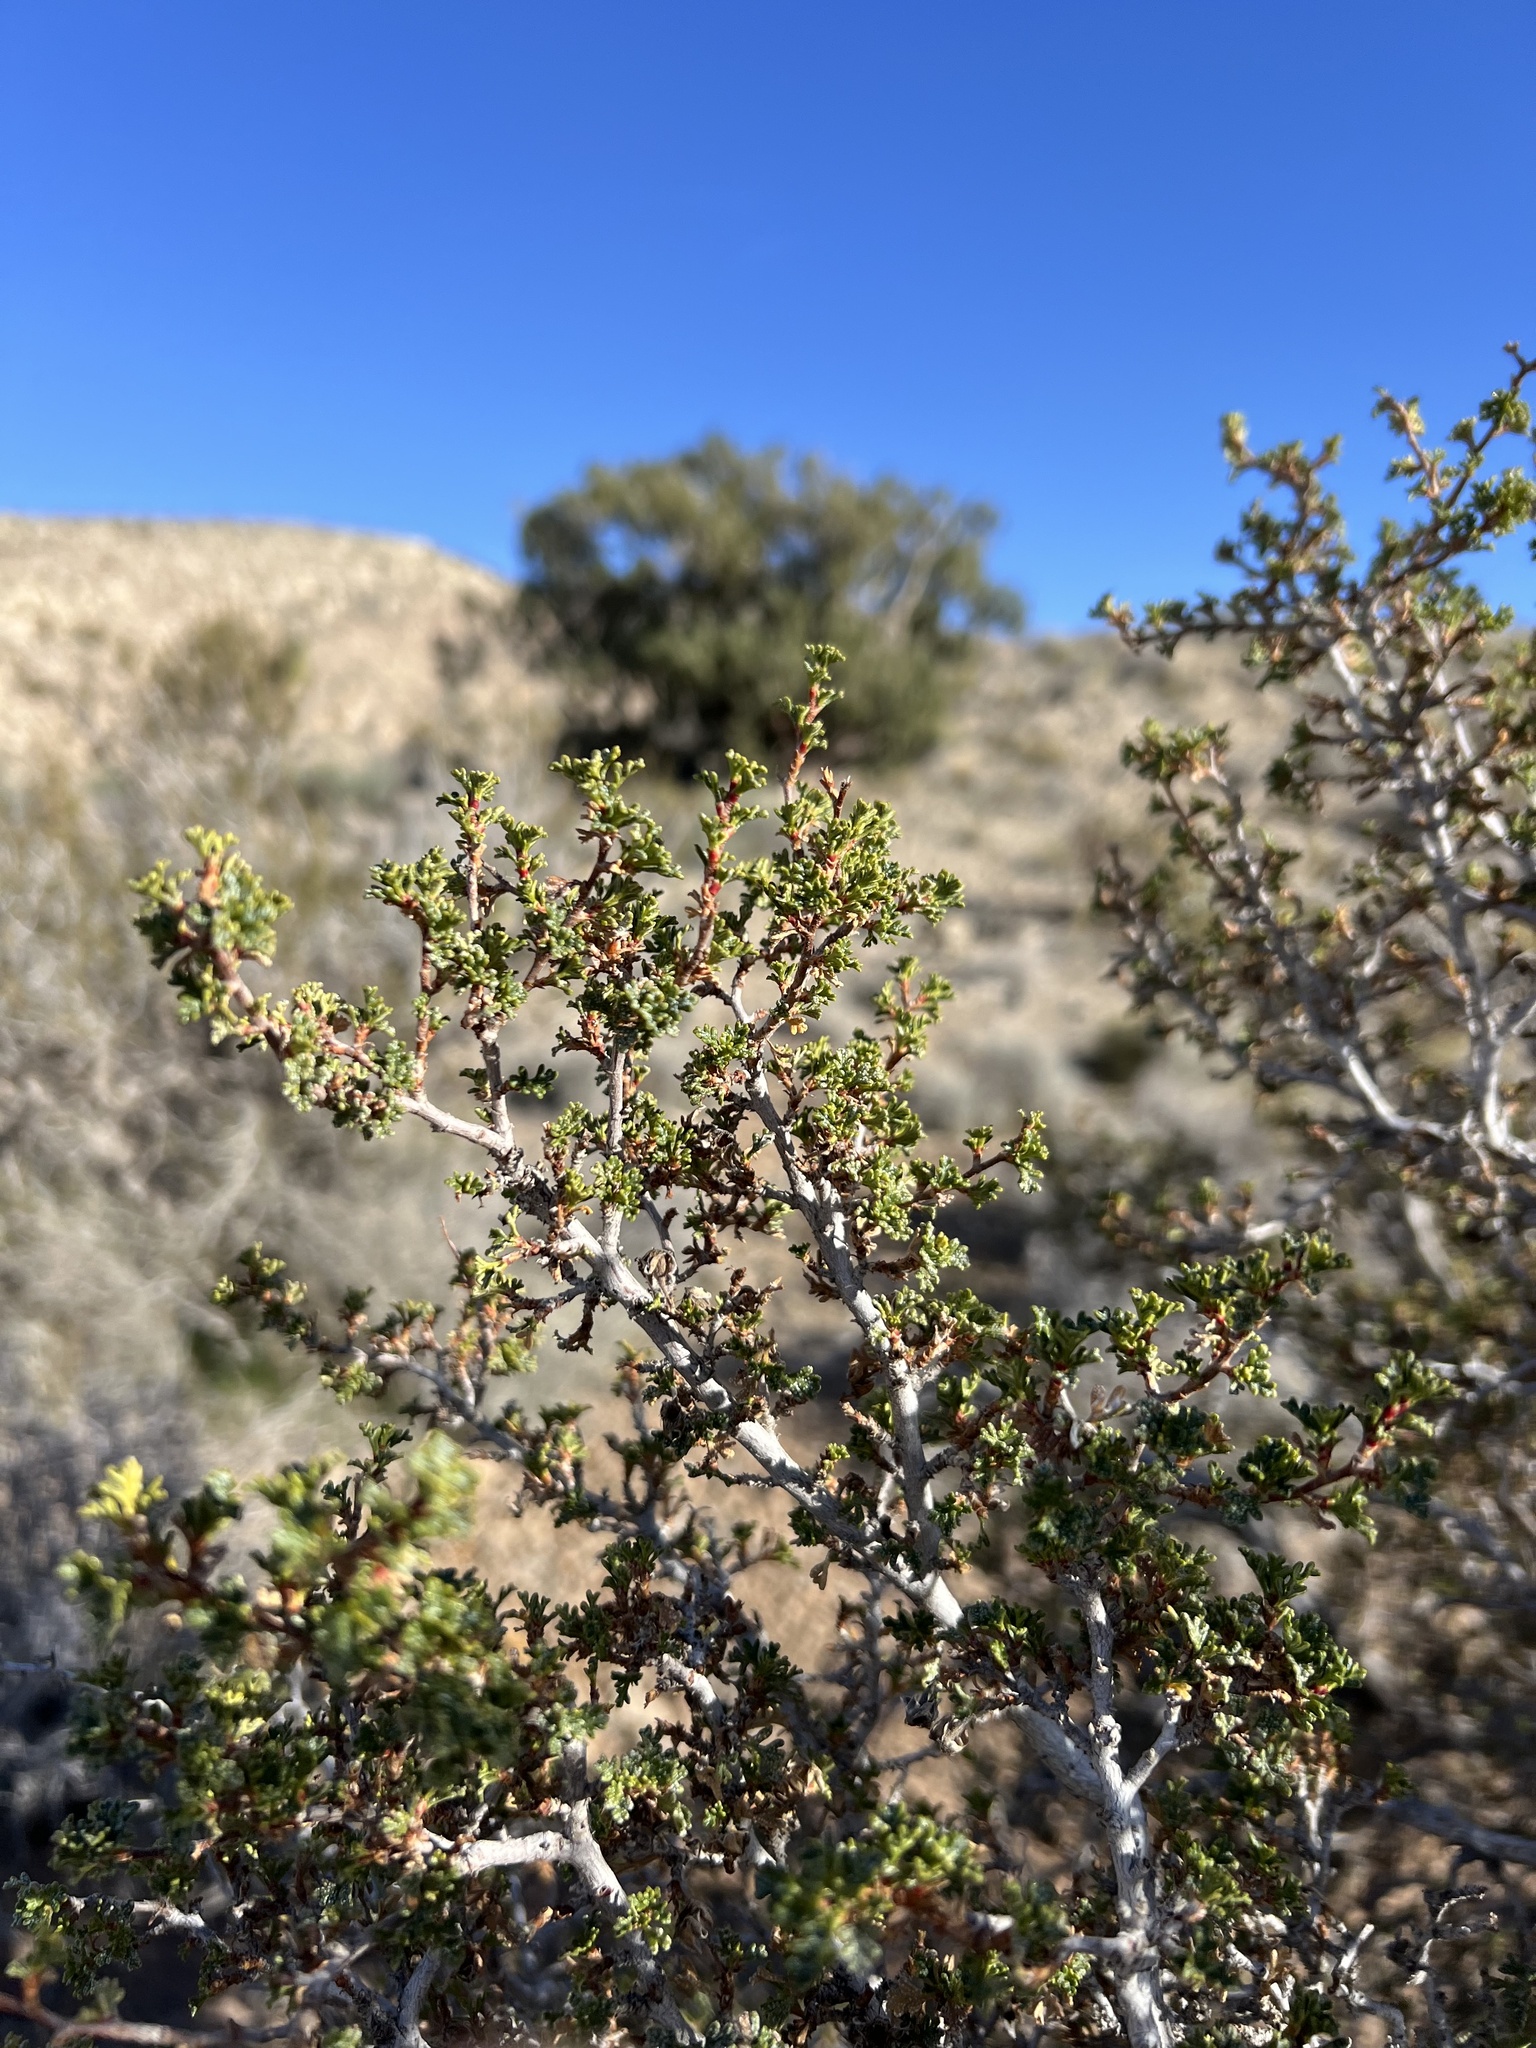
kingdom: Plantae
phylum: Tracheophyta
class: Magnoliopsida
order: Rosales
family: Rosaceae
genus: Purshia
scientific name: Purshia glandulosa
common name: Desert bitterbrush
